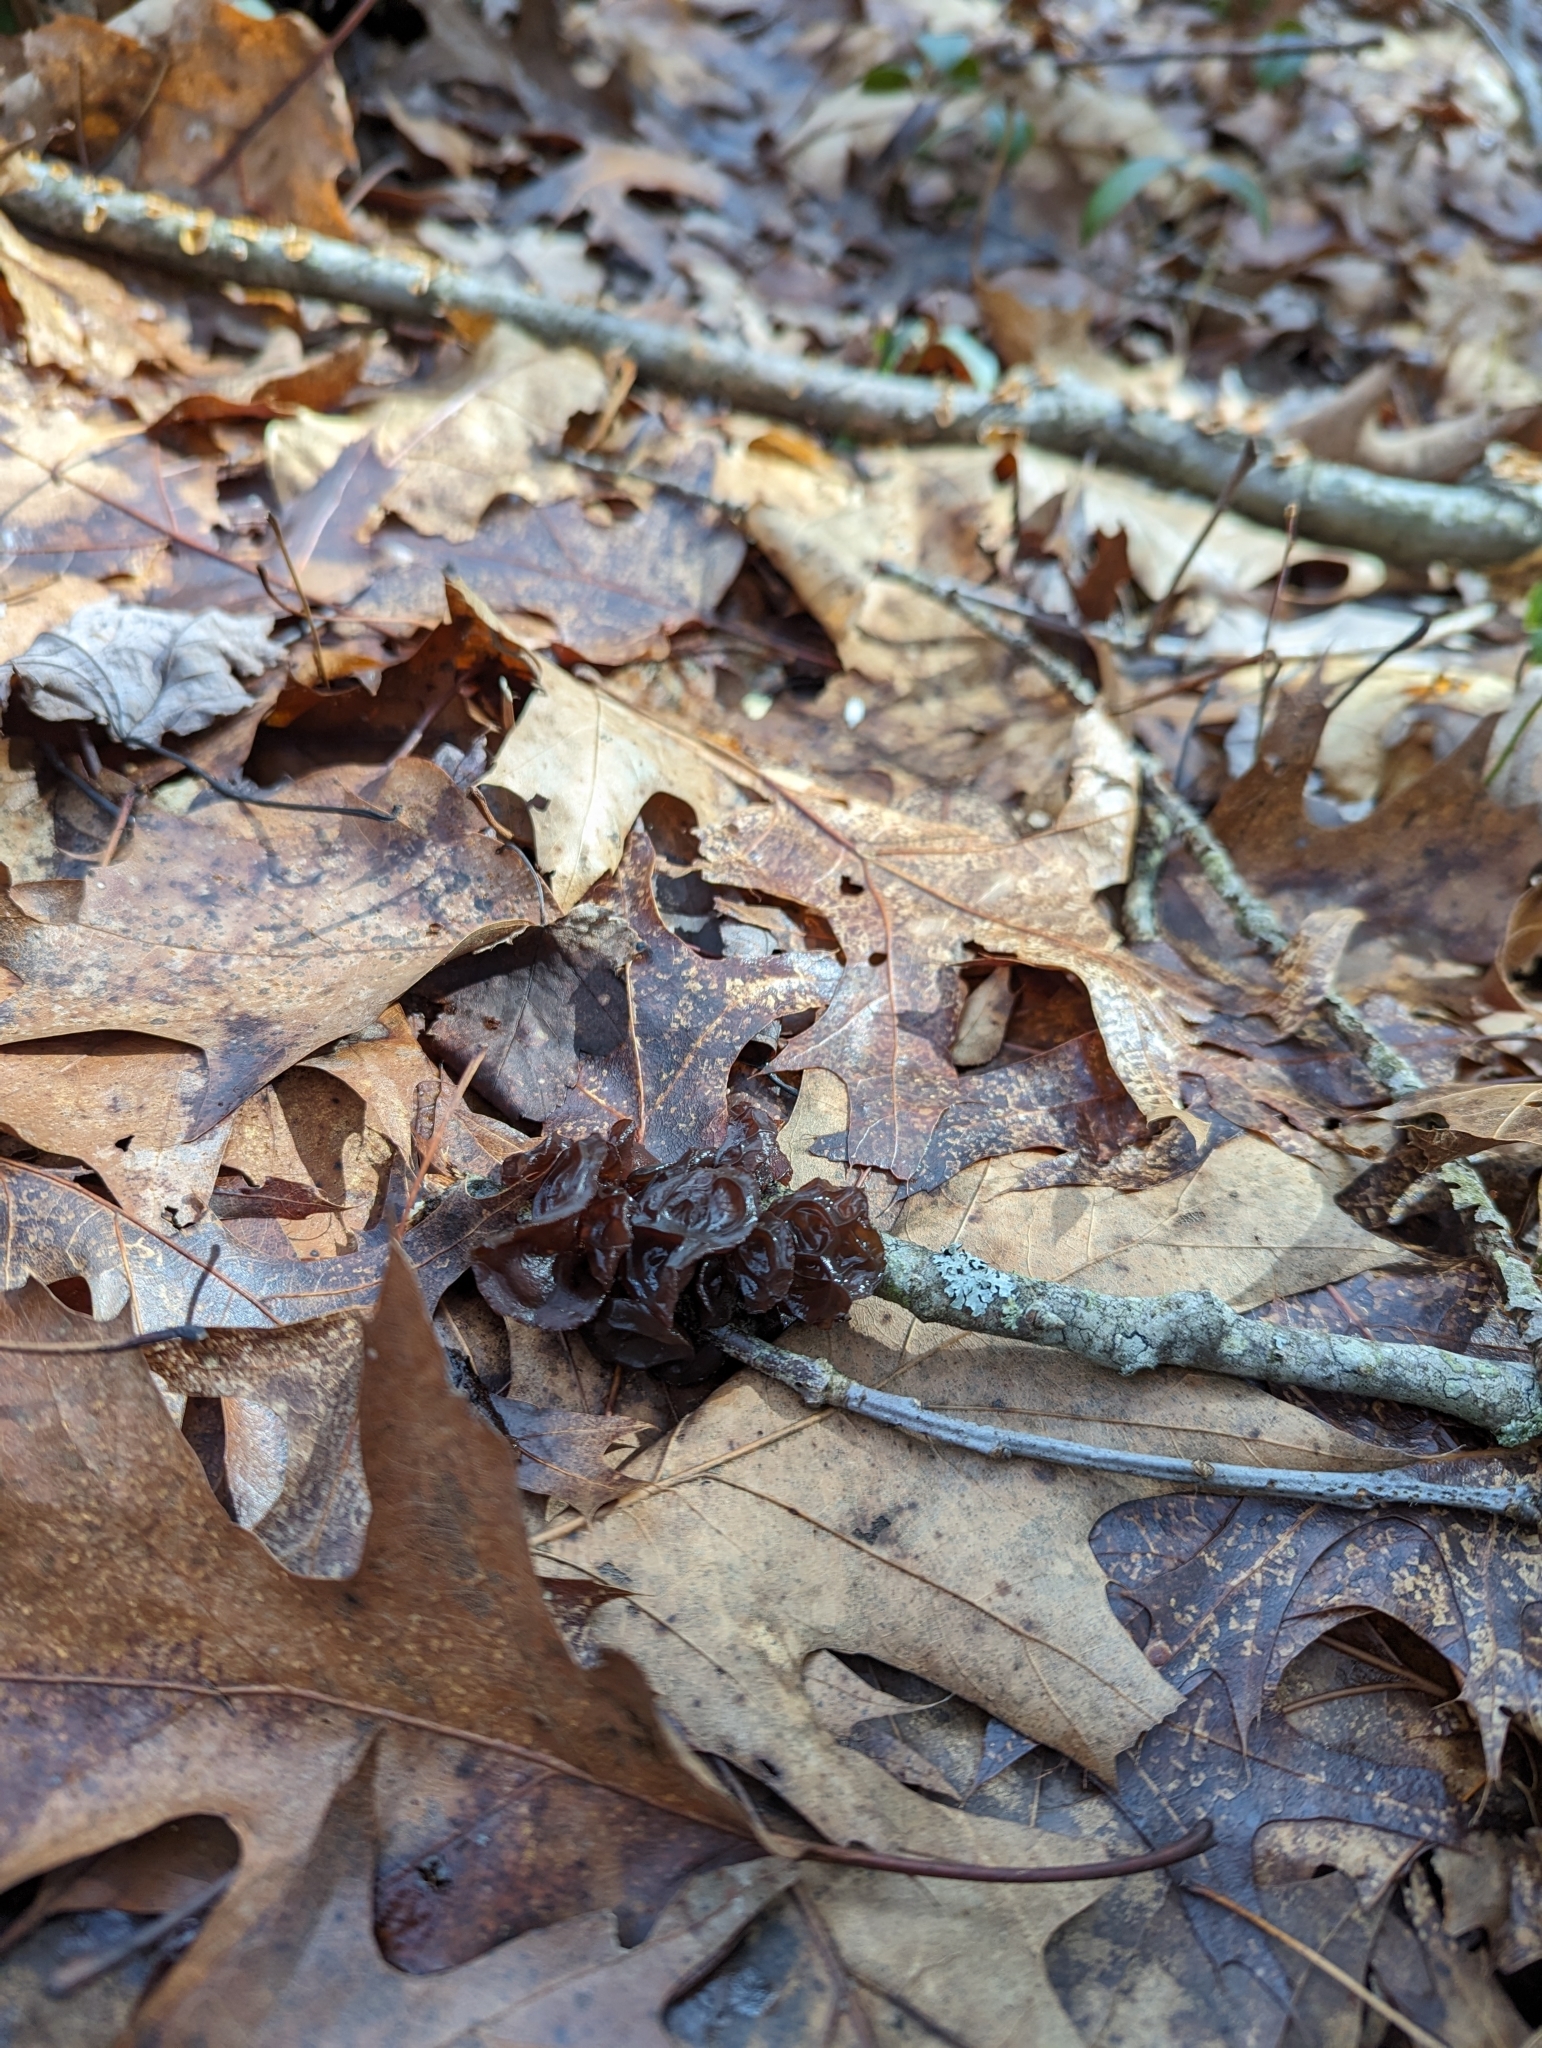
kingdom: Fungi
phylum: Basidiomycota
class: Agaricomycetes
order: Auriculariales
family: Auriculariaceae
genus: Exidia
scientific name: Exidia
